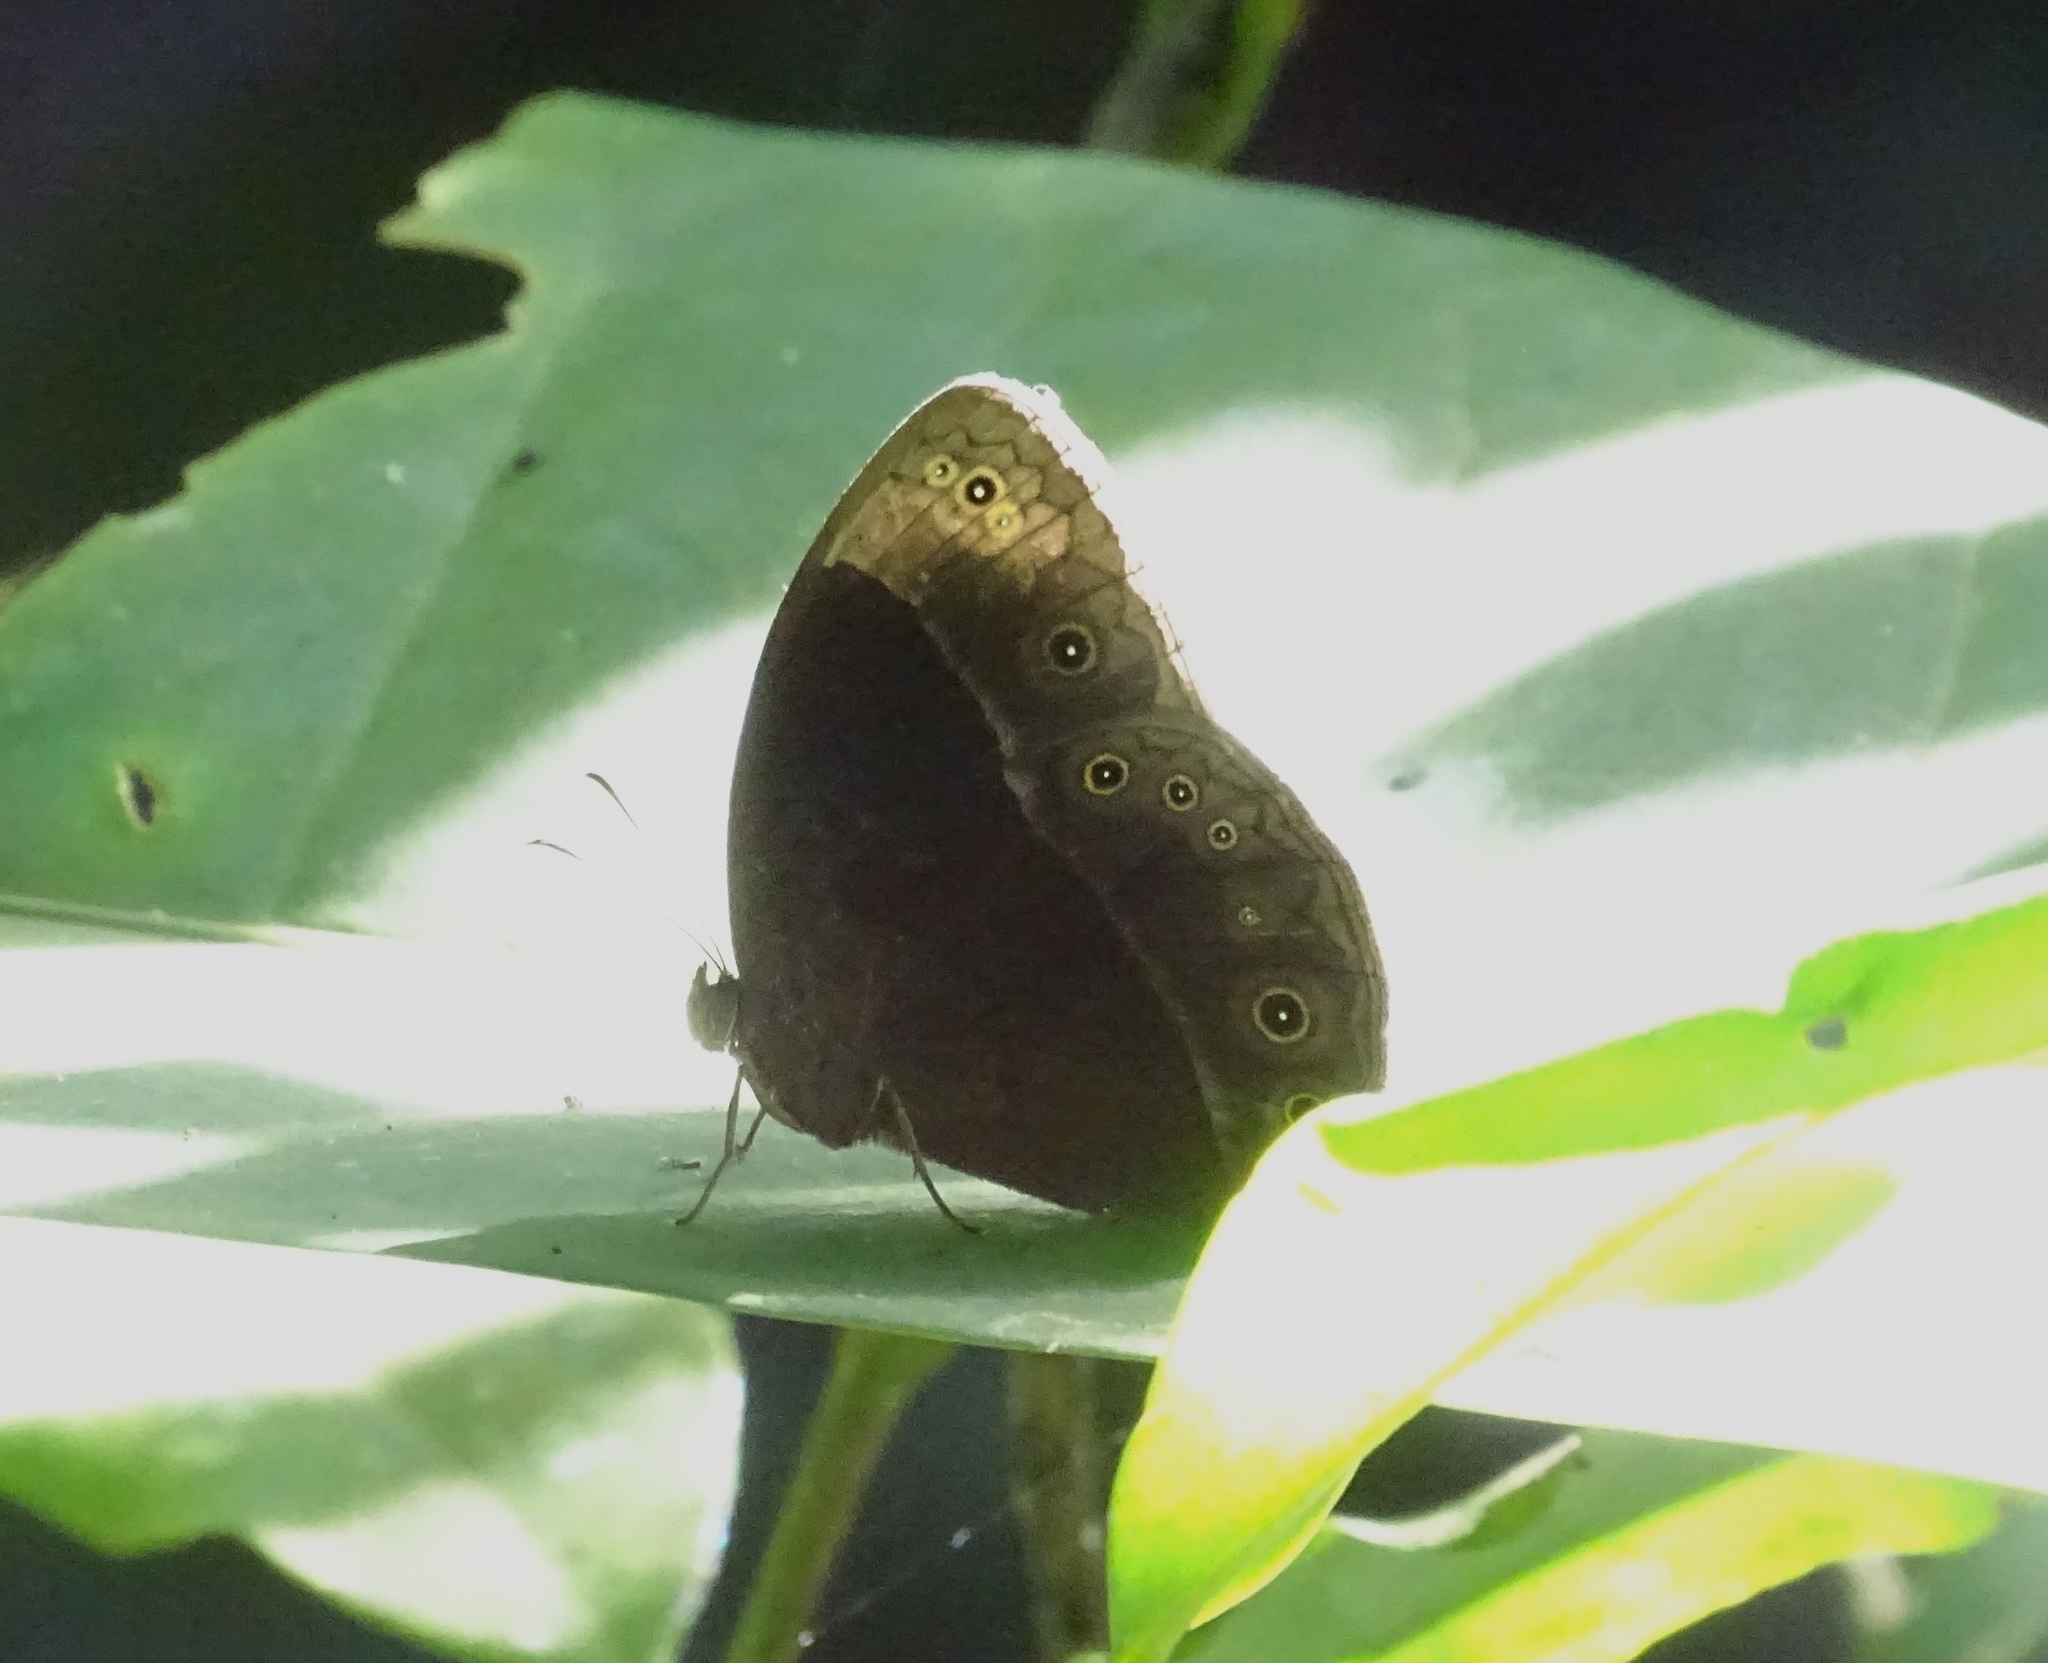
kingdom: Animalia
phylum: Arthropoda
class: Insecta
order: Lepidoptera
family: Nymphalidae
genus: Bicyclus
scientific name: Bicyclus mollitia
